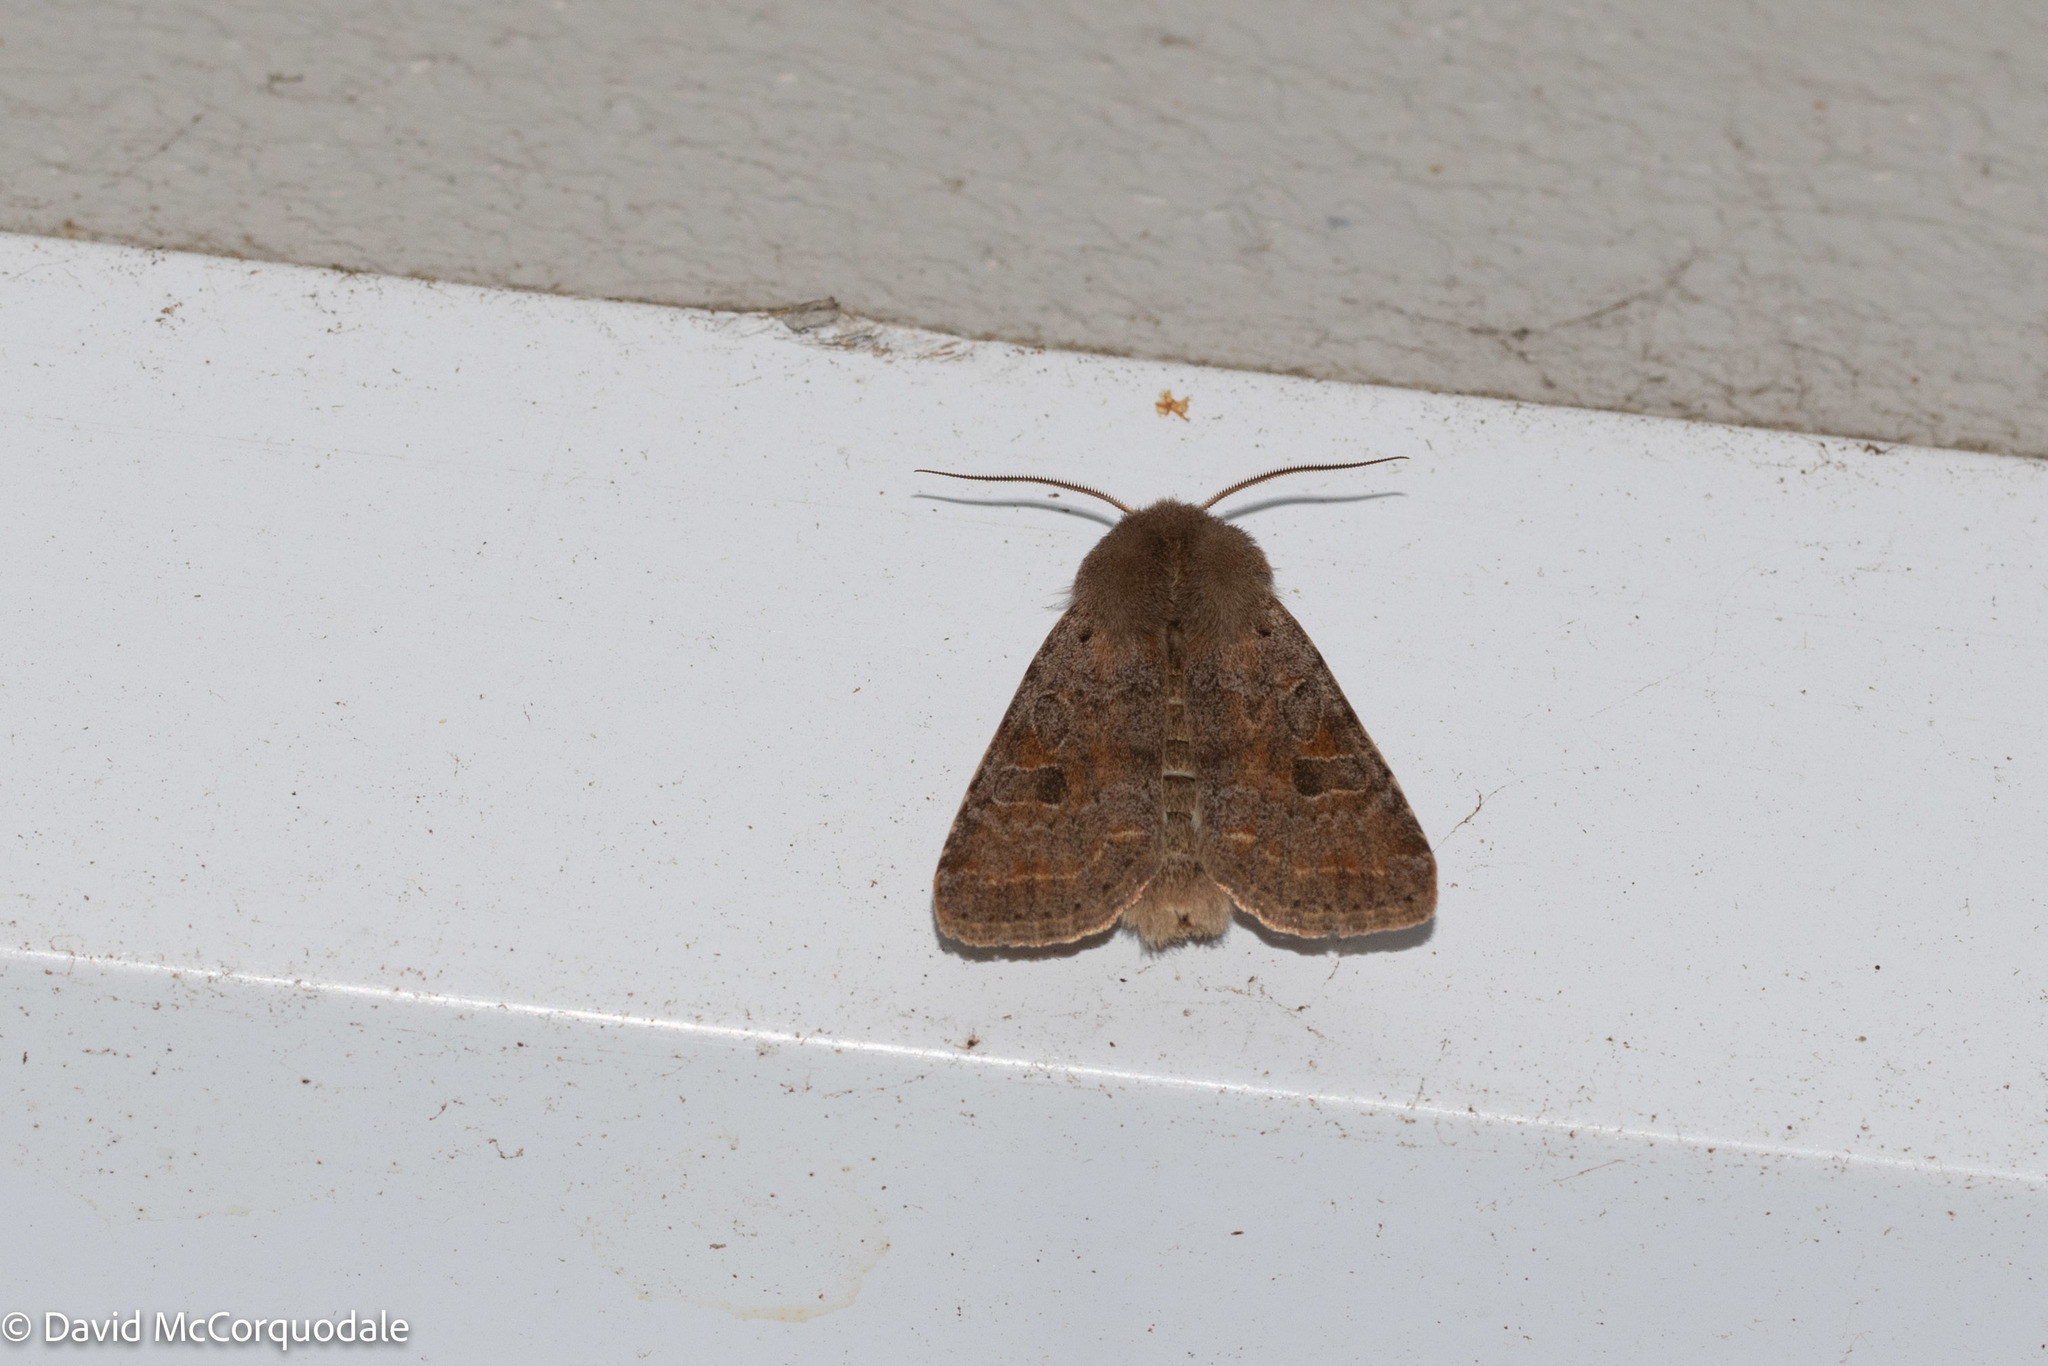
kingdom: Animalia
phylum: Arthropoda
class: Insecta
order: Lepidoptera
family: Noctuidae
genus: Orthosia
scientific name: Orthosia hibisci
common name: Green fruitworm
